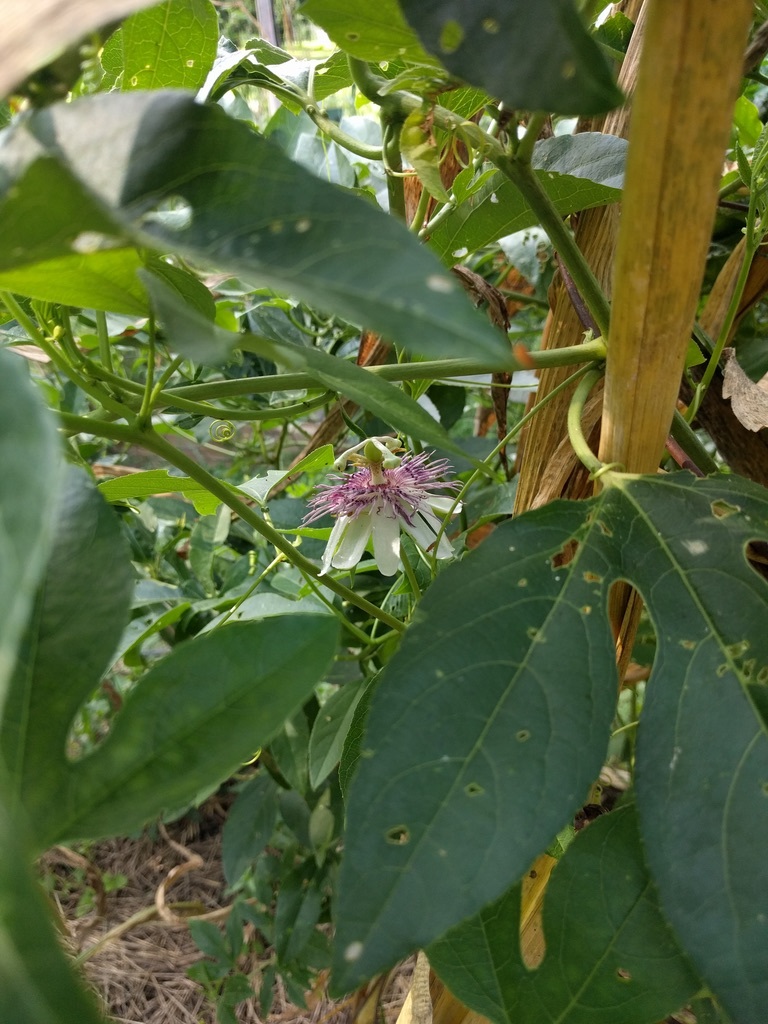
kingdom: Plantae
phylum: Tracheophyta
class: Magnoliopsida
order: Malpighiales
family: Passifloraceae
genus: Passiflora
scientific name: Passiflora incarnata
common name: Apricot-vine
